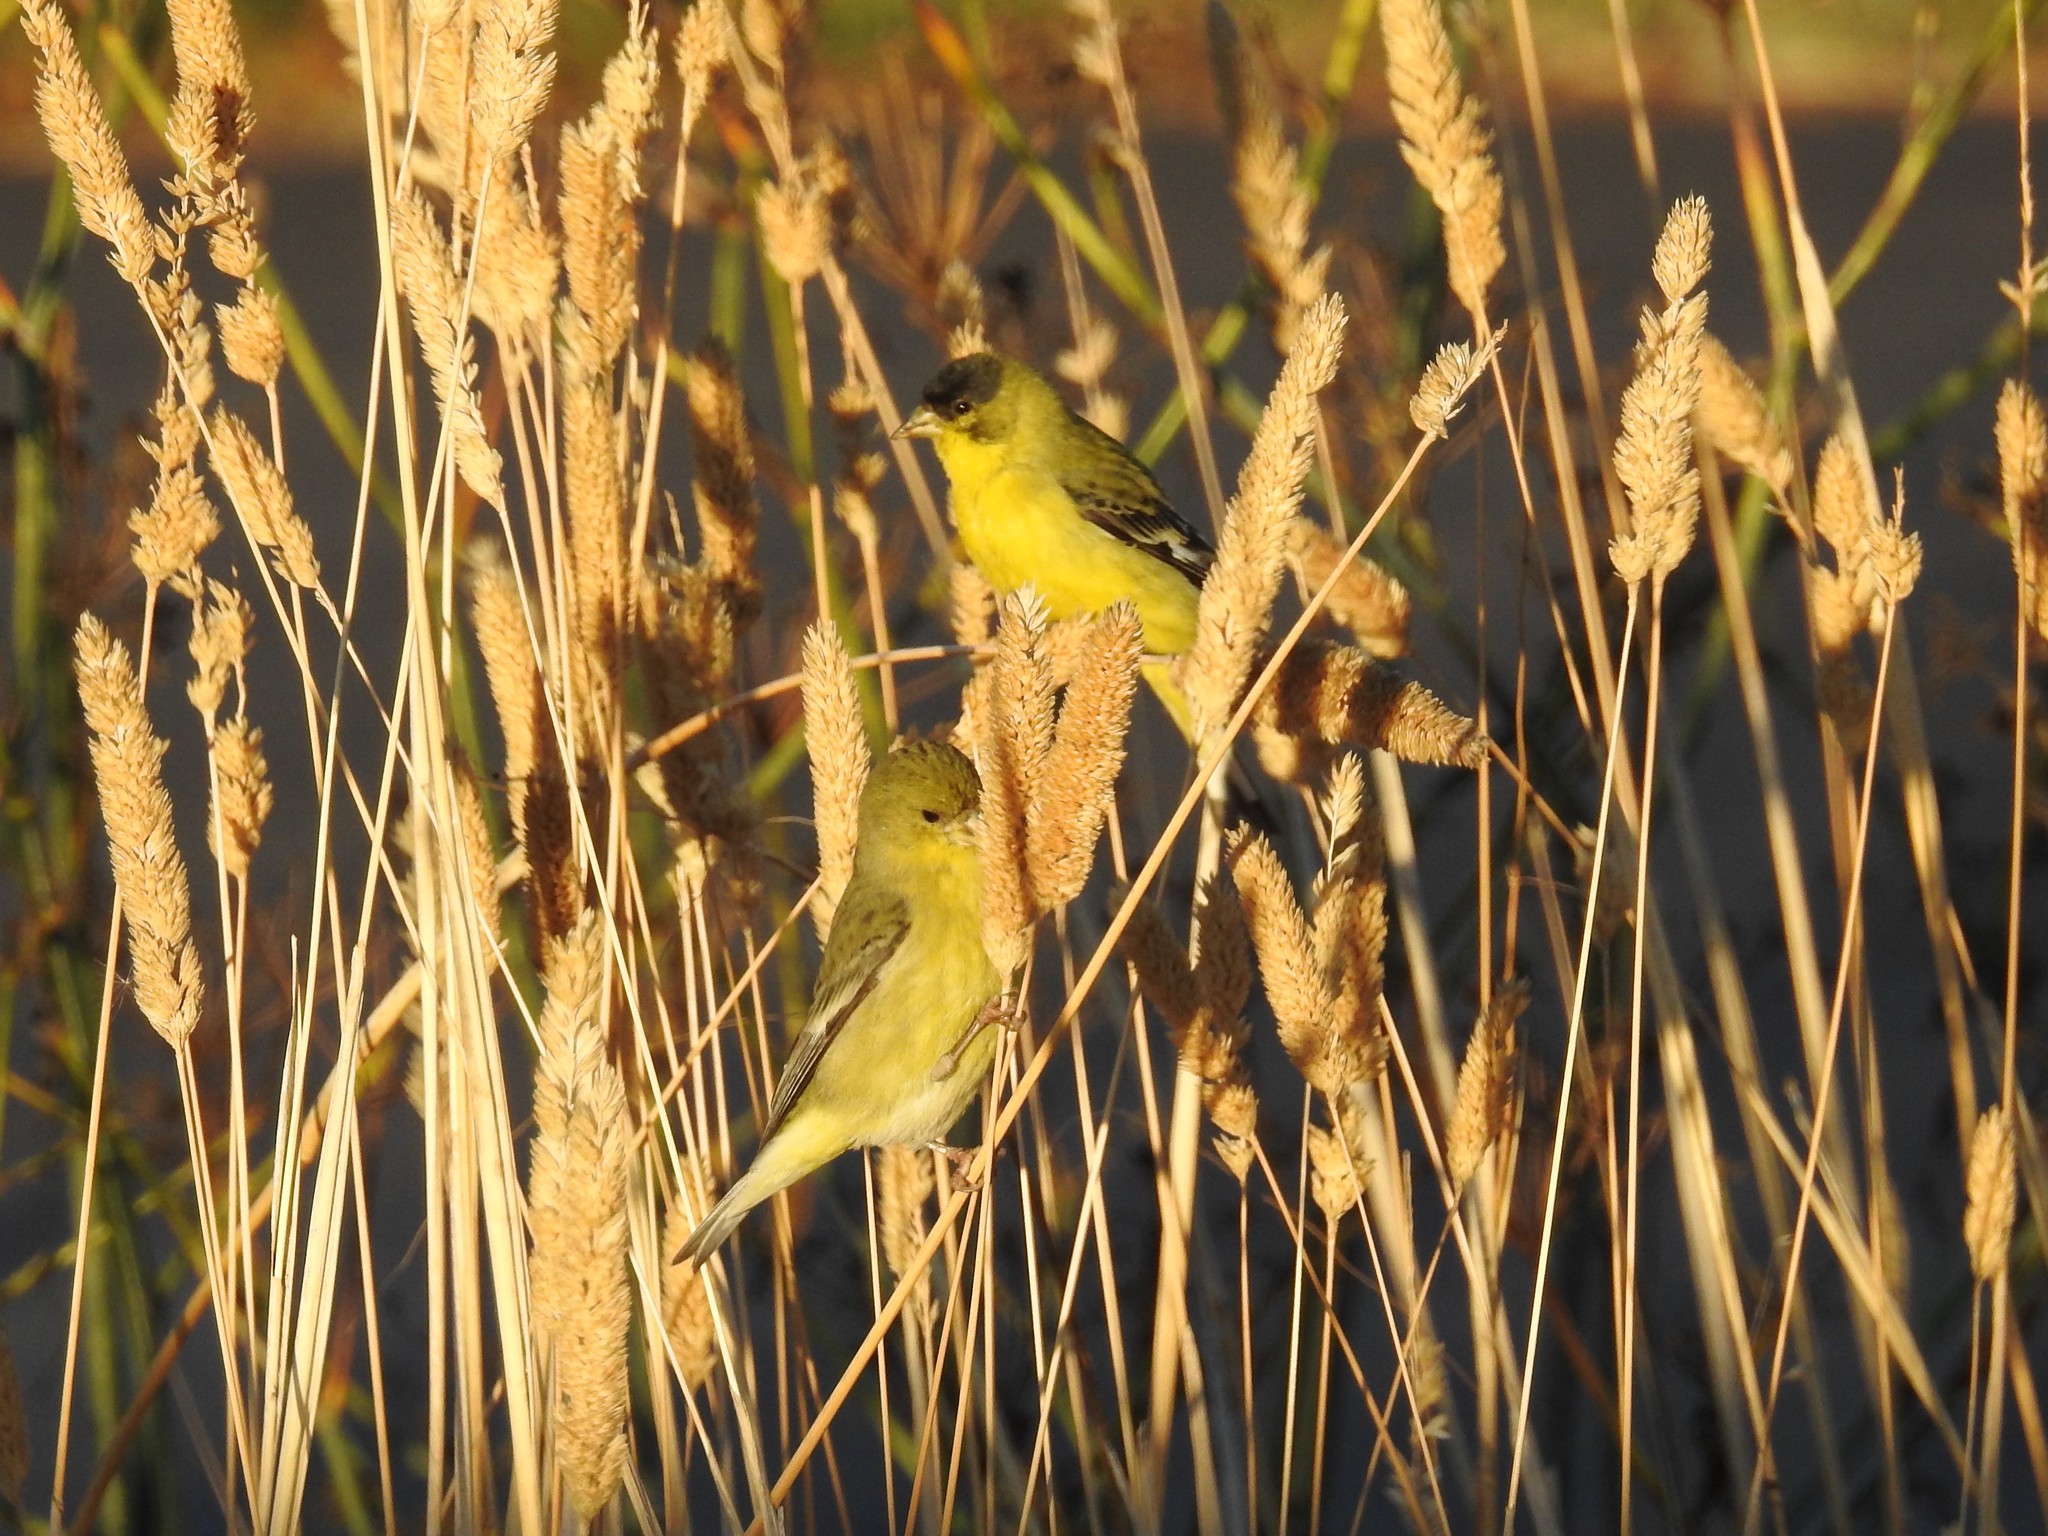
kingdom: Animalia
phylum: Chordata
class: Aves
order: Passeriformes
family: Fringillidae
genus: Spinus
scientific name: Spinus psaltria
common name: Lesser goldfinch
